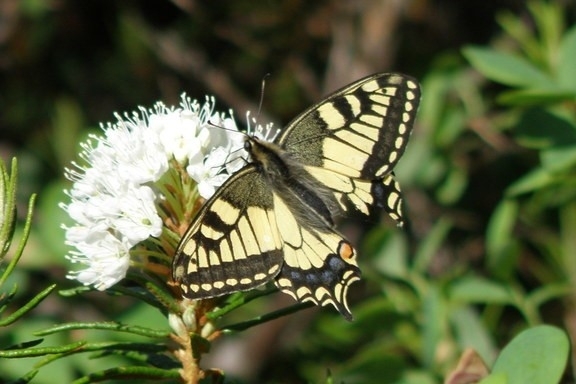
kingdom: Animalia
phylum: Arthropoda
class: Insecta
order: Lepidoptera
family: Papilionidae
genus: Papilio
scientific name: Papilio machaon
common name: Swallowtail
